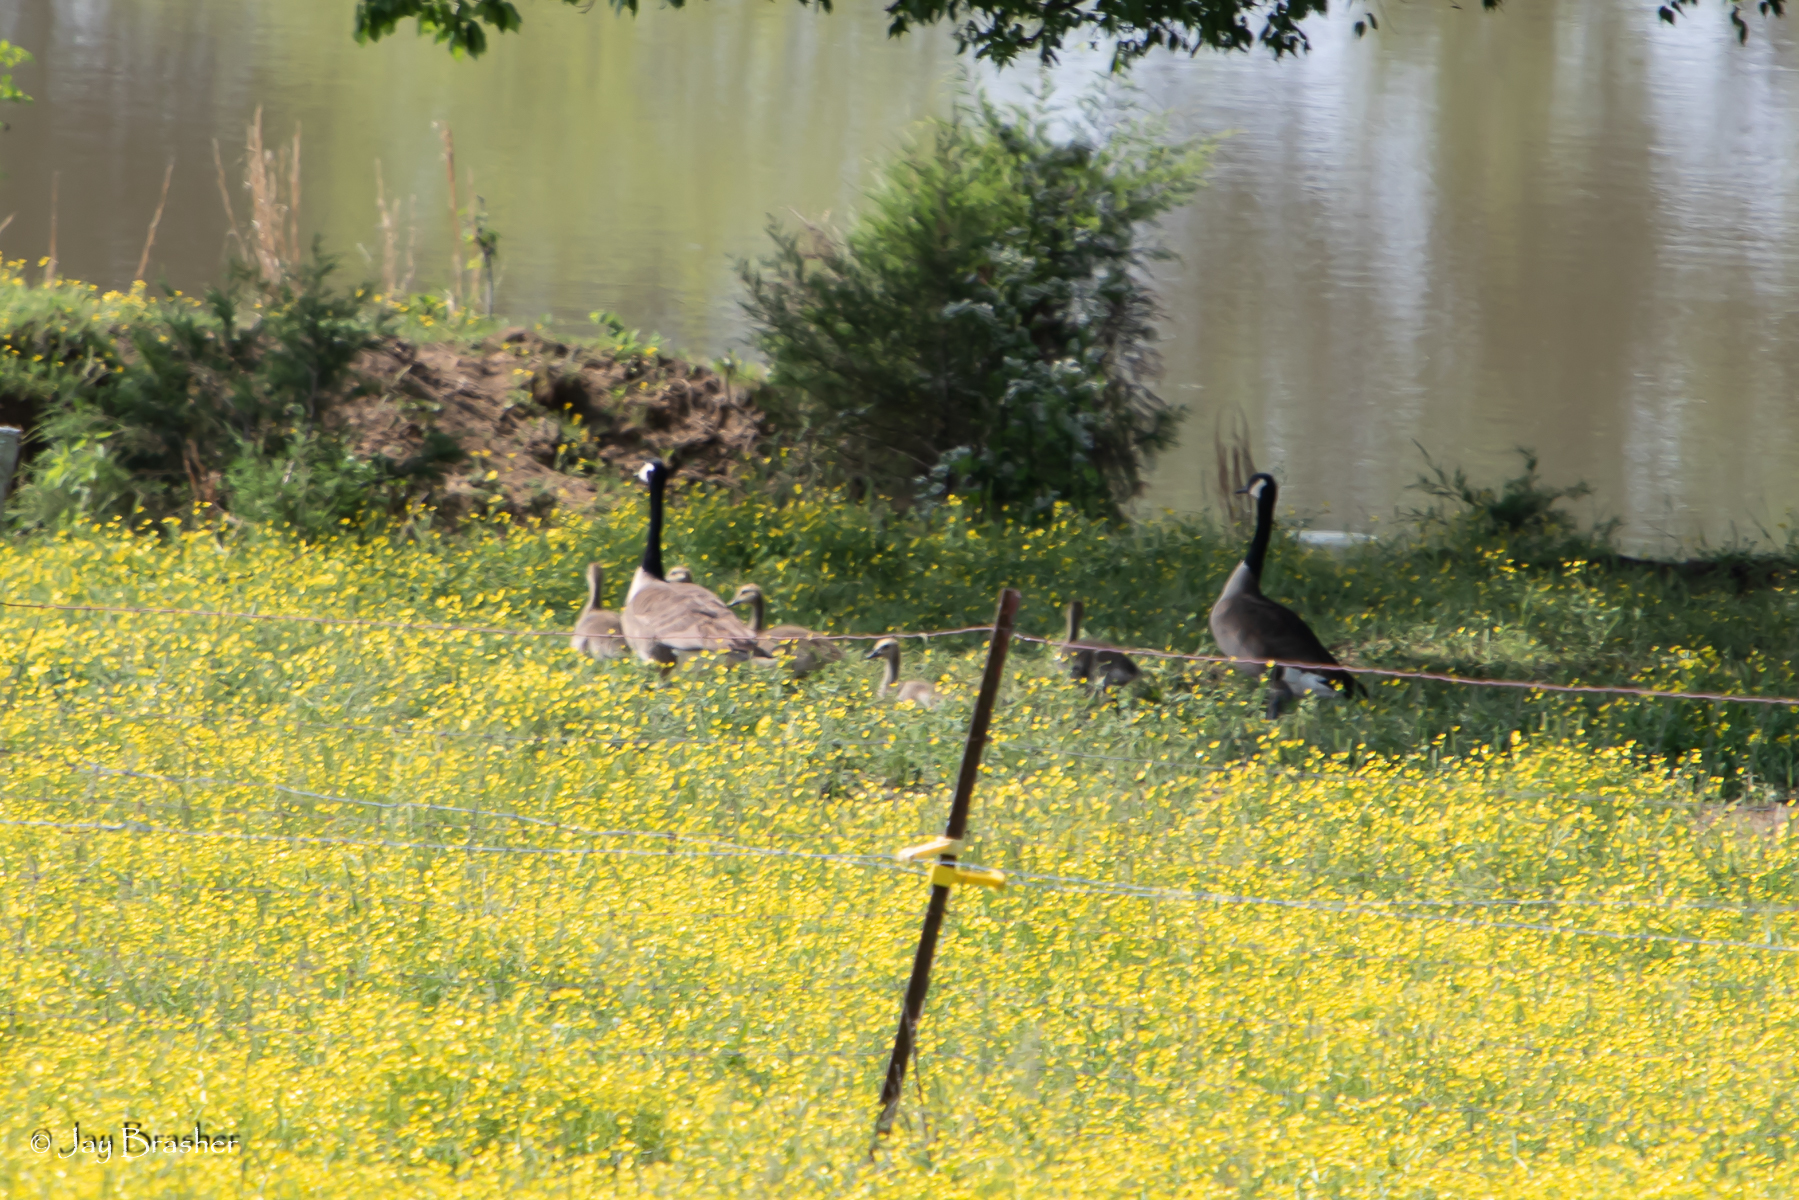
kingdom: Animalia
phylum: Chordata
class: Aves
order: Anseriformes
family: Anatidae
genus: Branta
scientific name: Branta canadensis
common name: Canada goose
